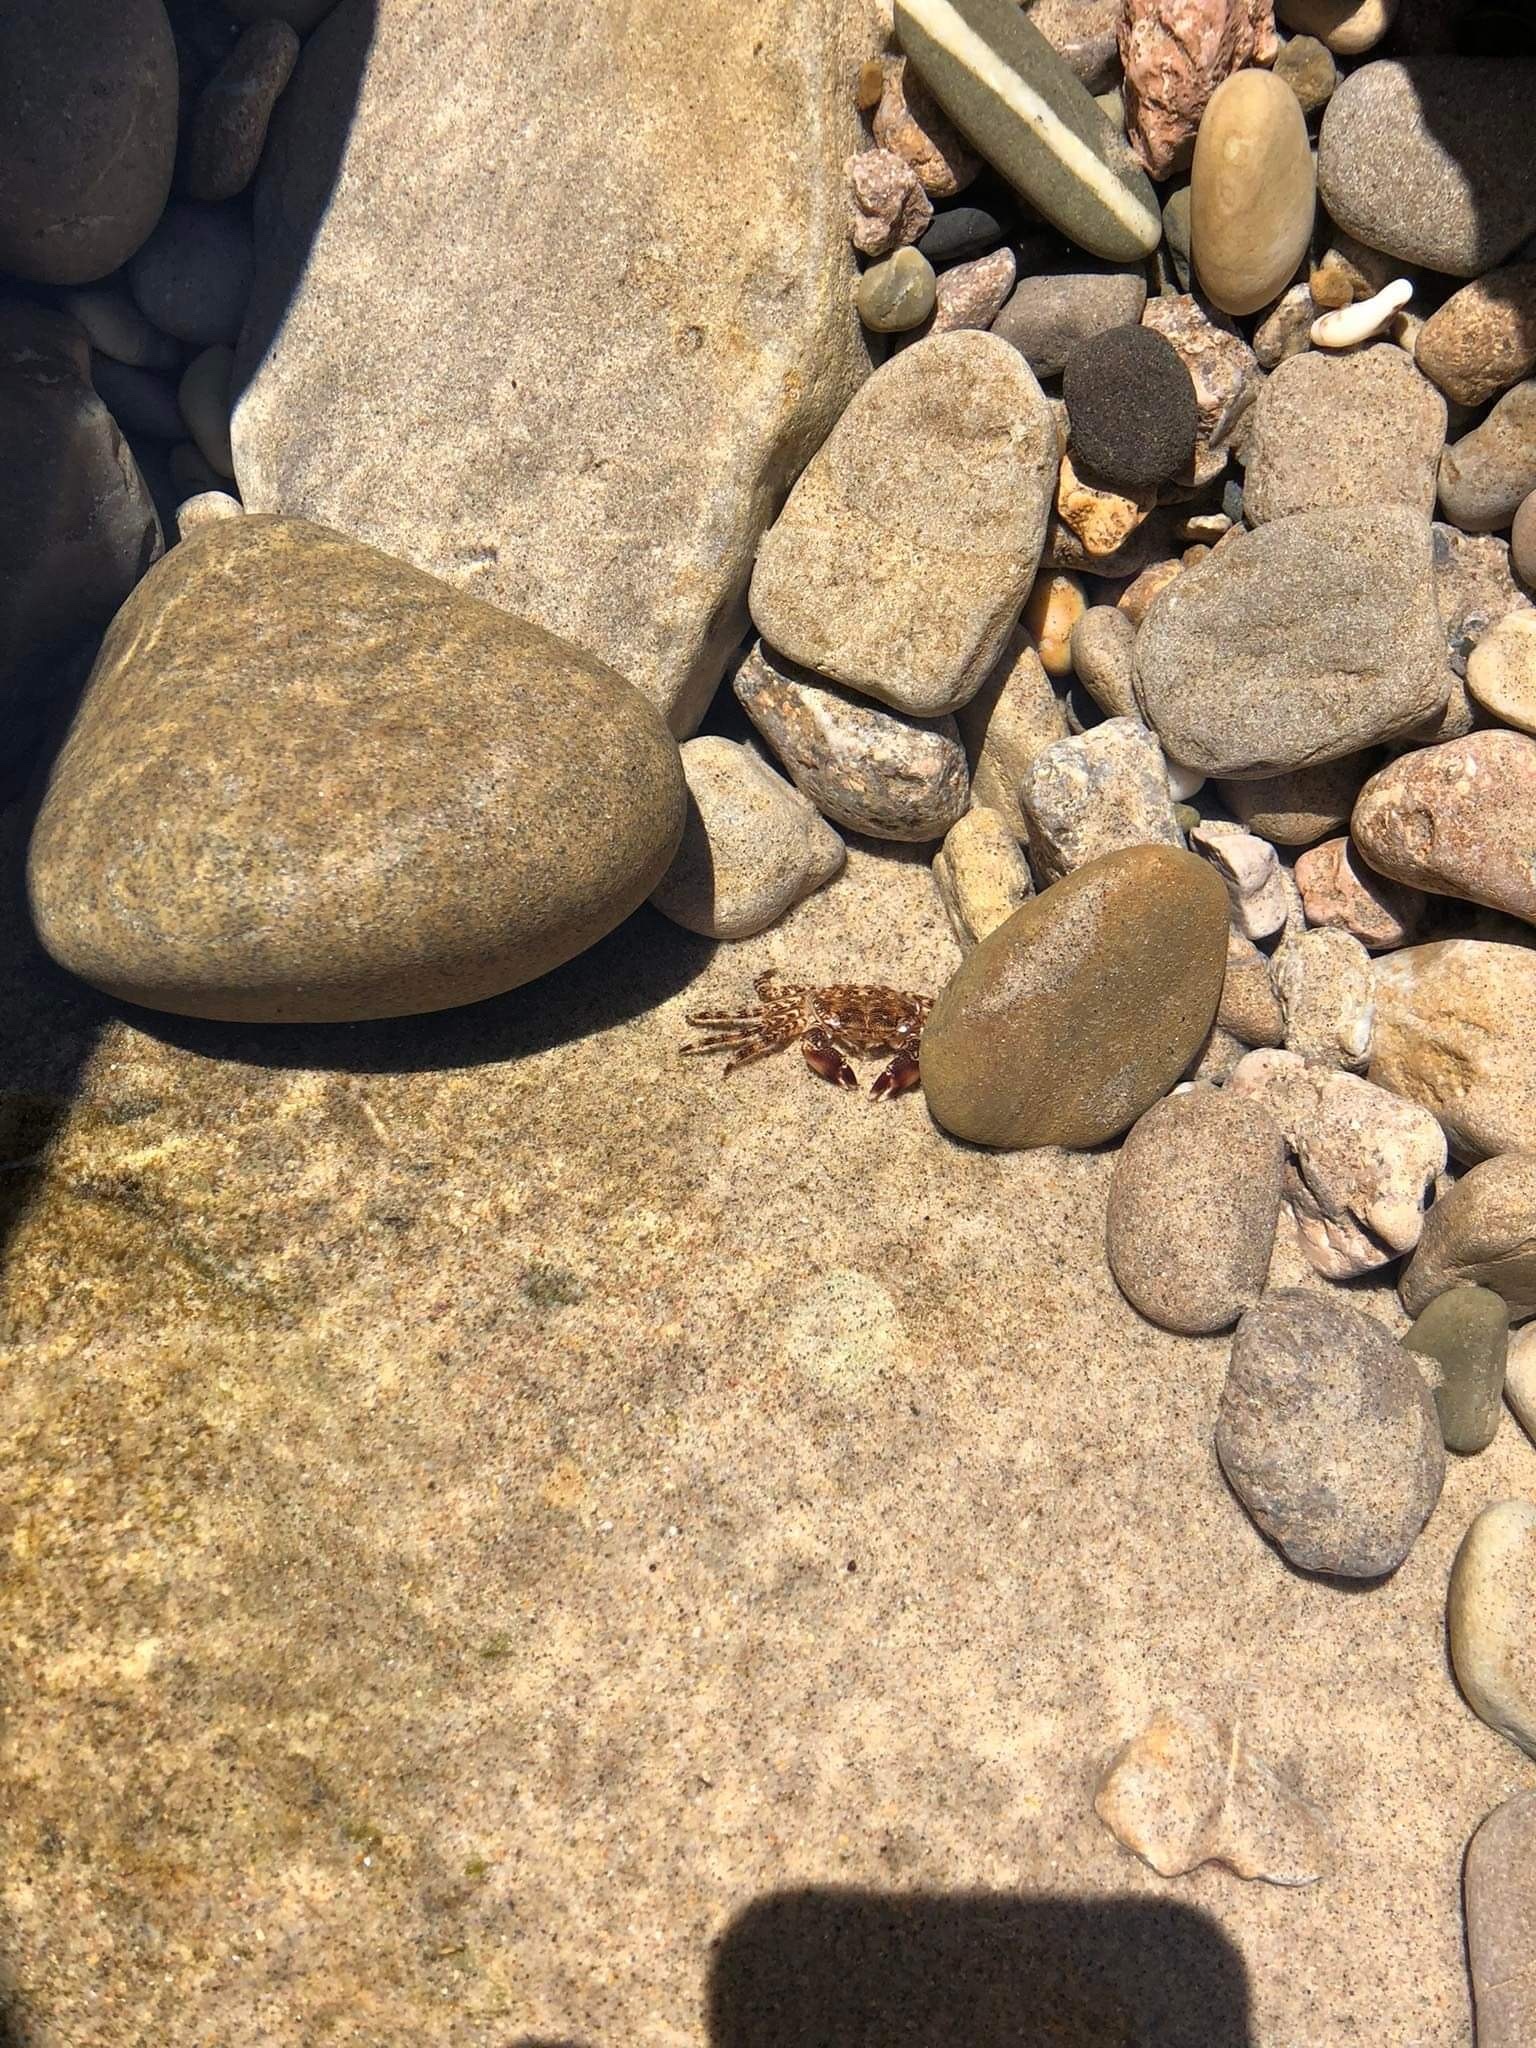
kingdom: Animalia
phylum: Arthropoda
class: Malacostraca
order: Decapoda
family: Grapsidae
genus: Pachygrapsus
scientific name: Pachygrapsus marmoratus
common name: Marbled rock crab
